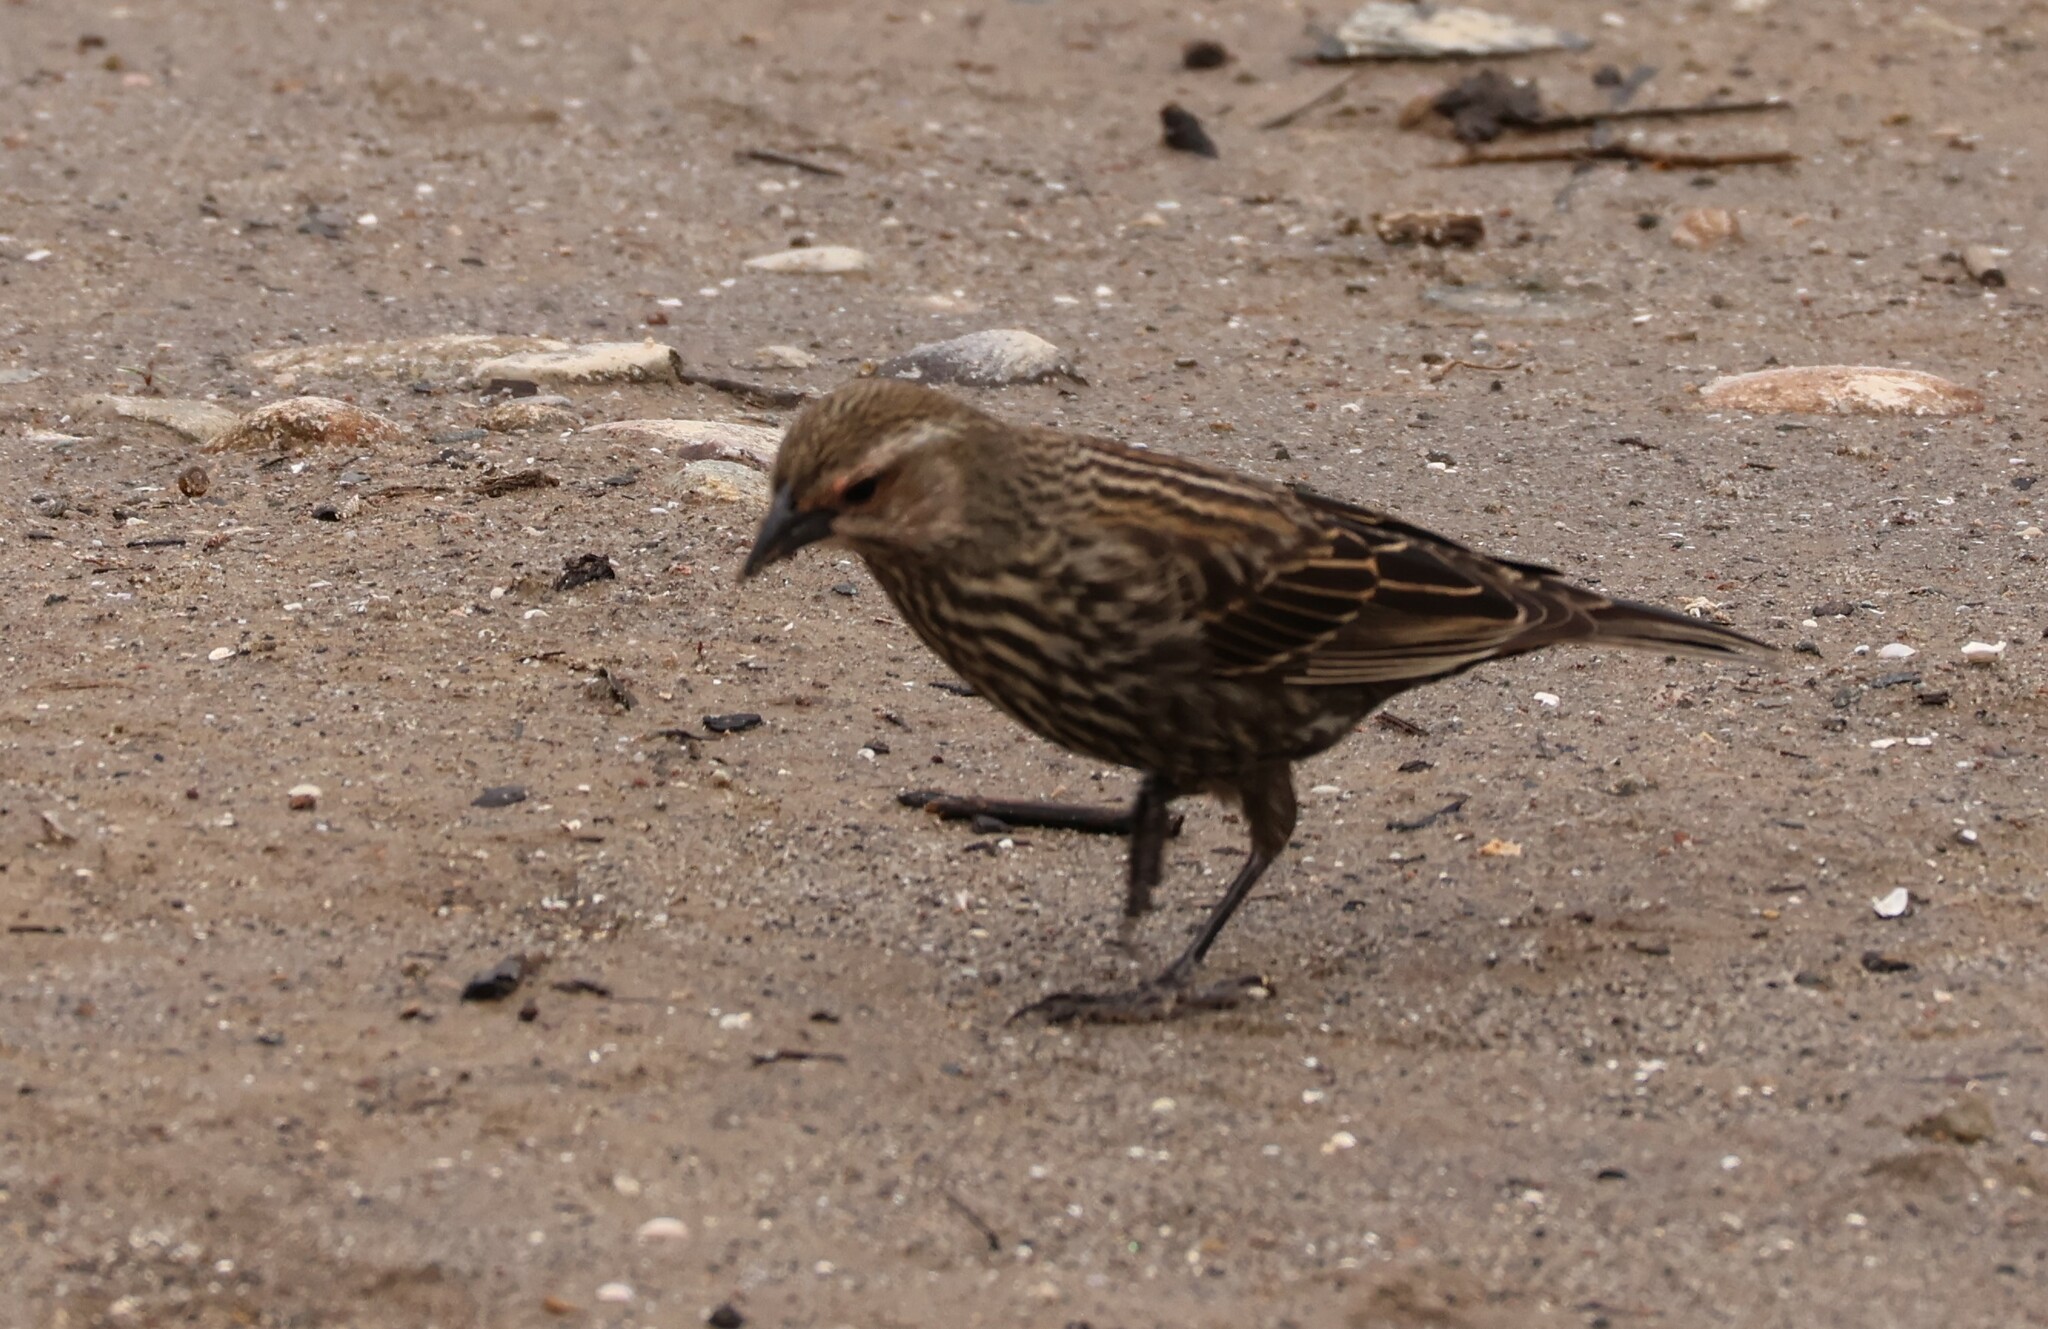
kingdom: Animalia
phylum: Chordata
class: Aves
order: Passeriformes
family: Icteridae
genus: Agelaius
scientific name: Agelaius phoeniceus
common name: Red-winged blackbird
